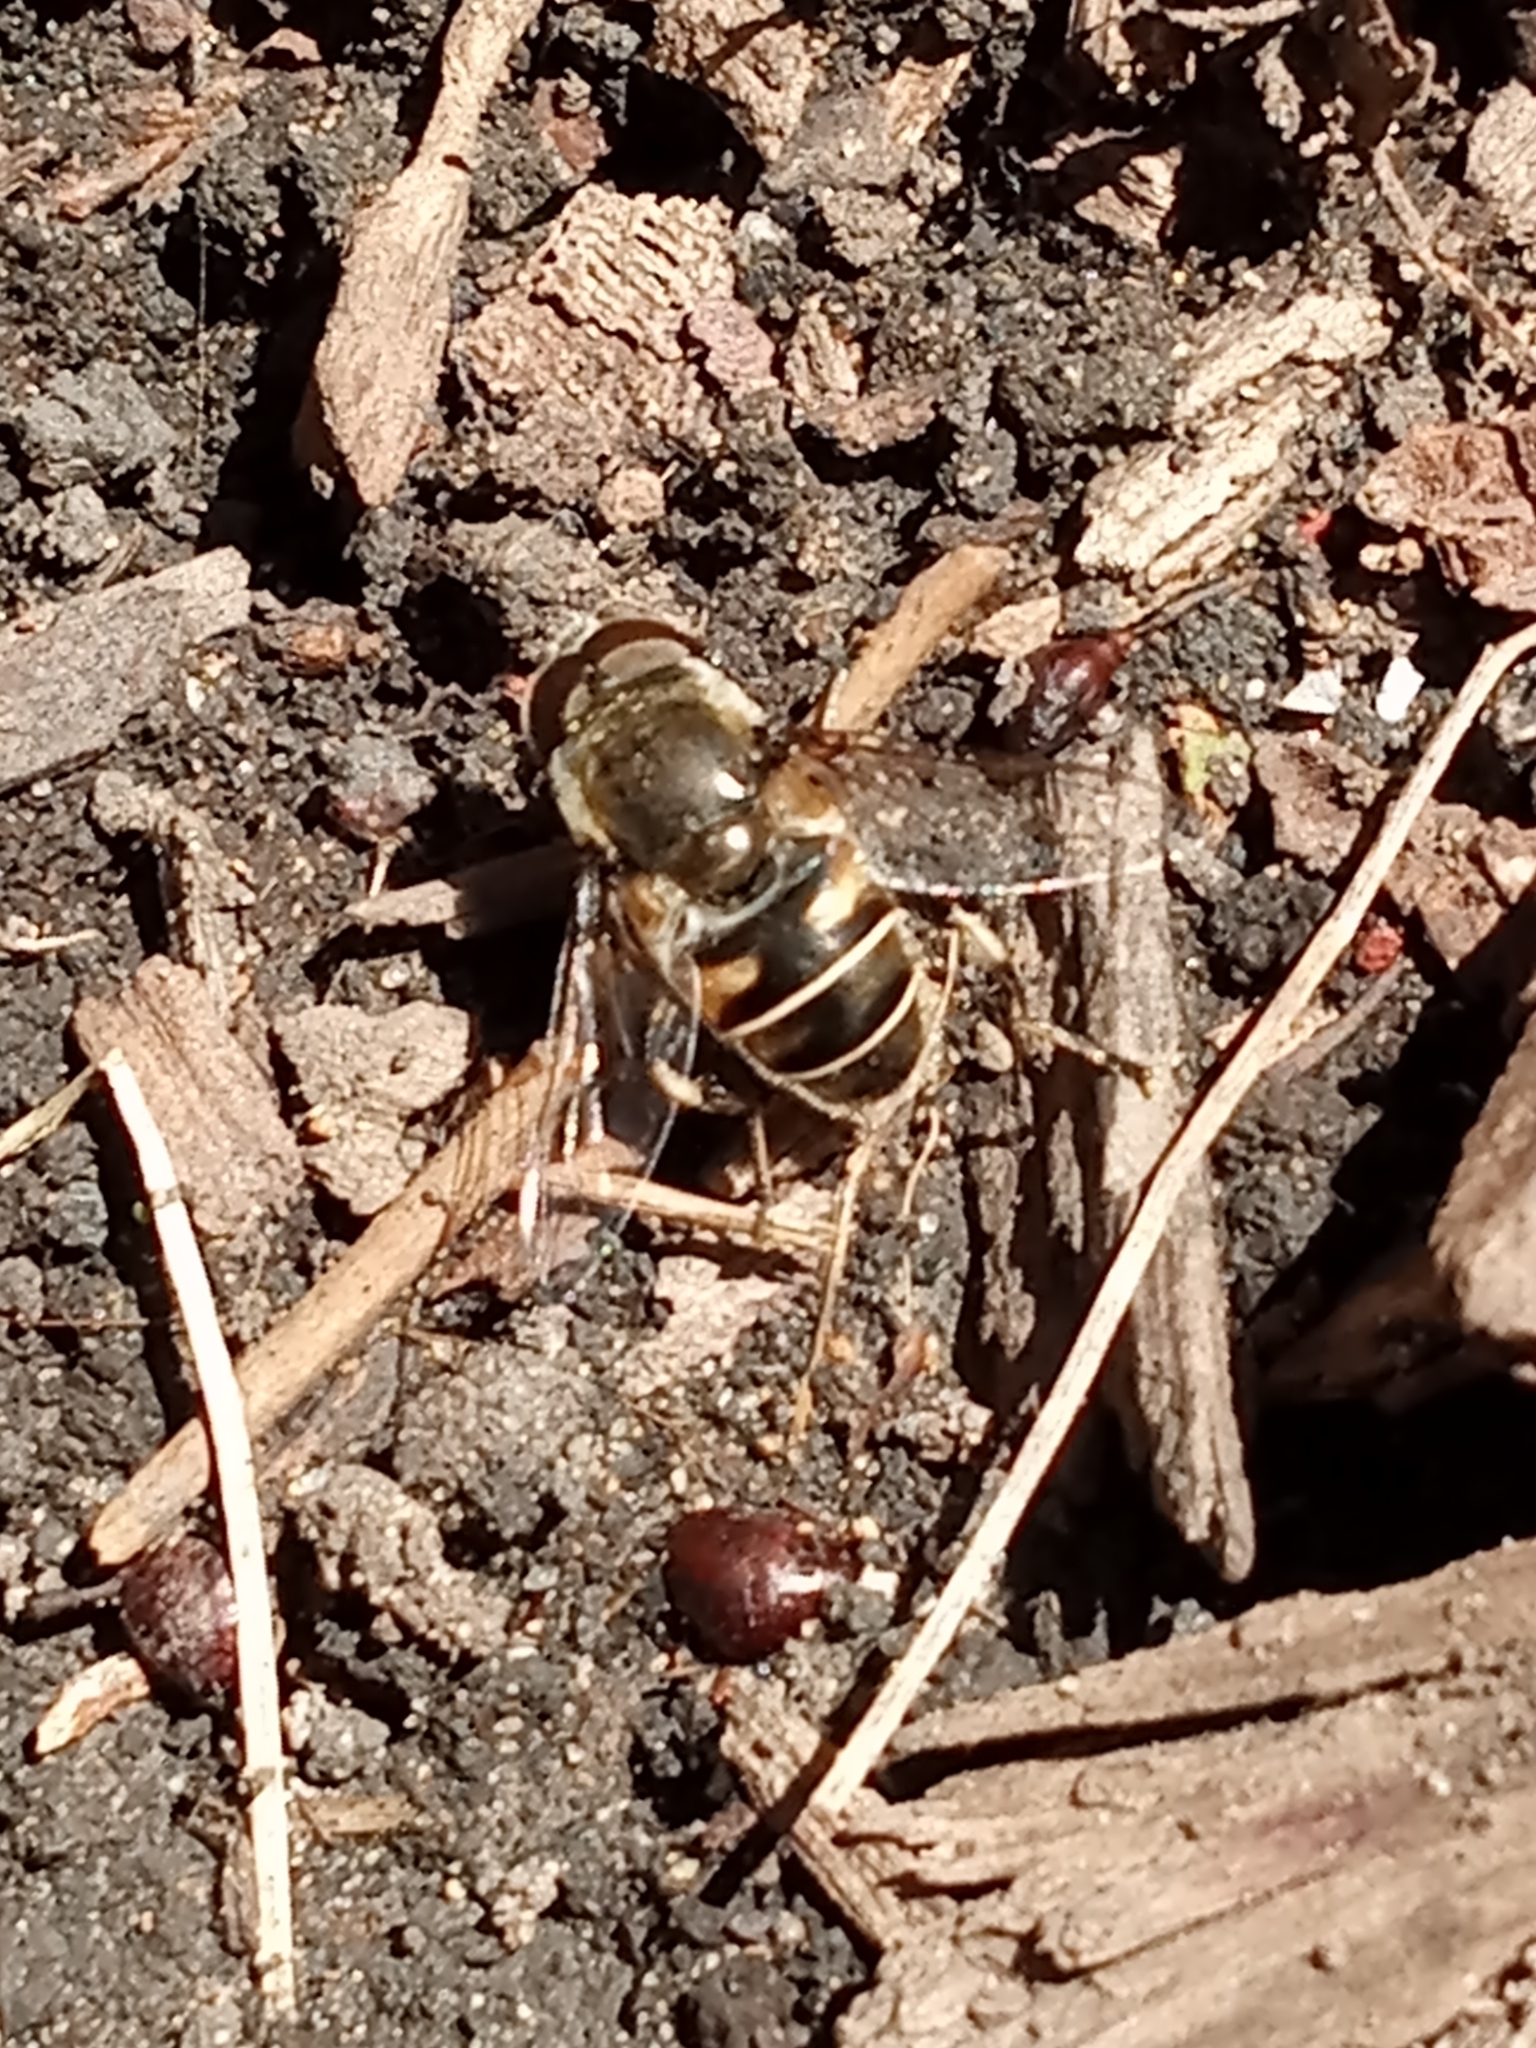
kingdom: Animalia
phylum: Arthropoda
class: Insecta
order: Diptera
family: Syrphidae
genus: Eristalis
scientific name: Eristalis dimidiata
